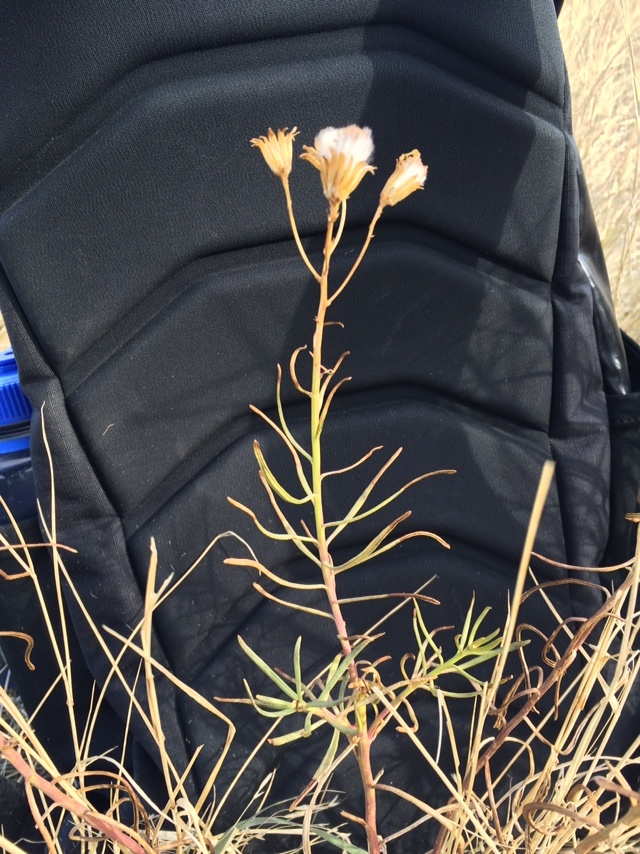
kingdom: Plantae
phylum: Tracheophyta
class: Magnoliopsida
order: Asterales
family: Asteraceae
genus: Senecio
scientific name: Senecio spartioides
